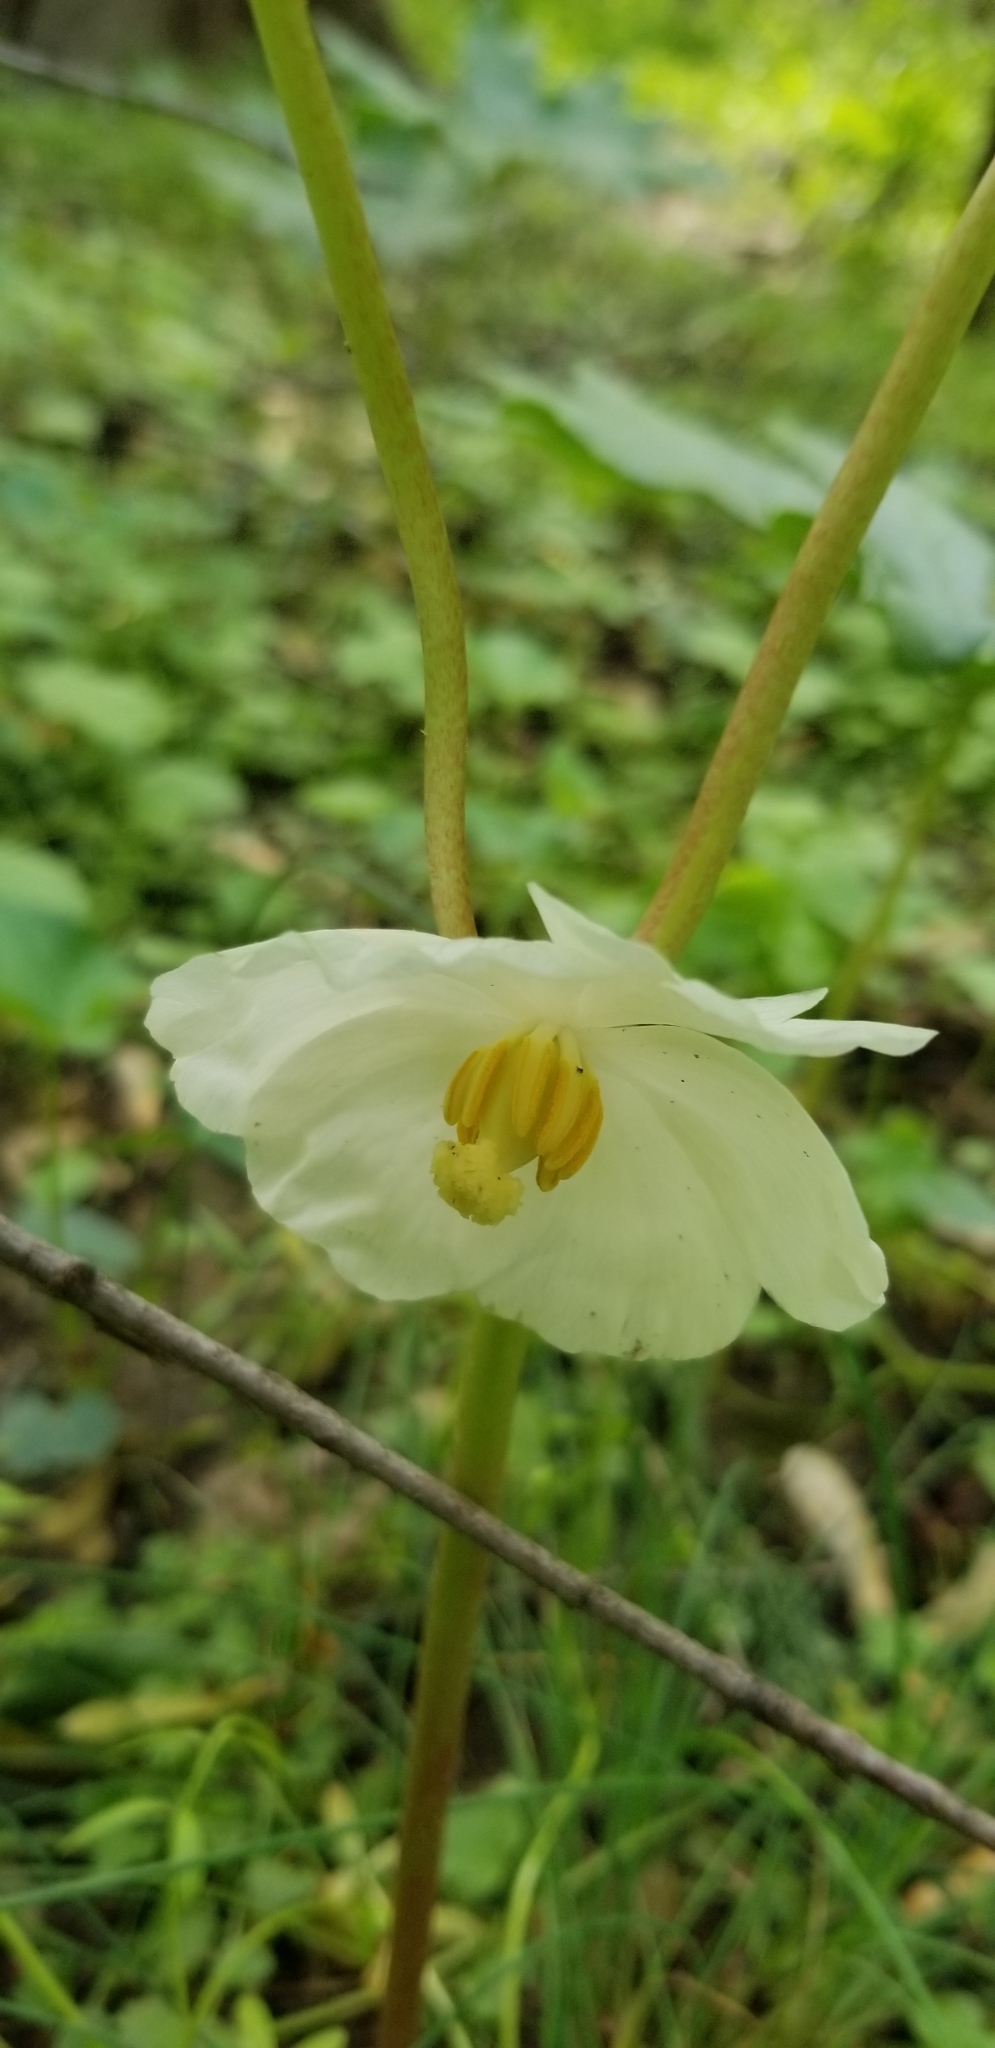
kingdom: Plantae
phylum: Tracheophyta
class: Magnoliopsida
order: Ranunculales
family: Berberidaceae
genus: Podophyllum
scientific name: Podophyllum peltatum
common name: Wild mandrake
